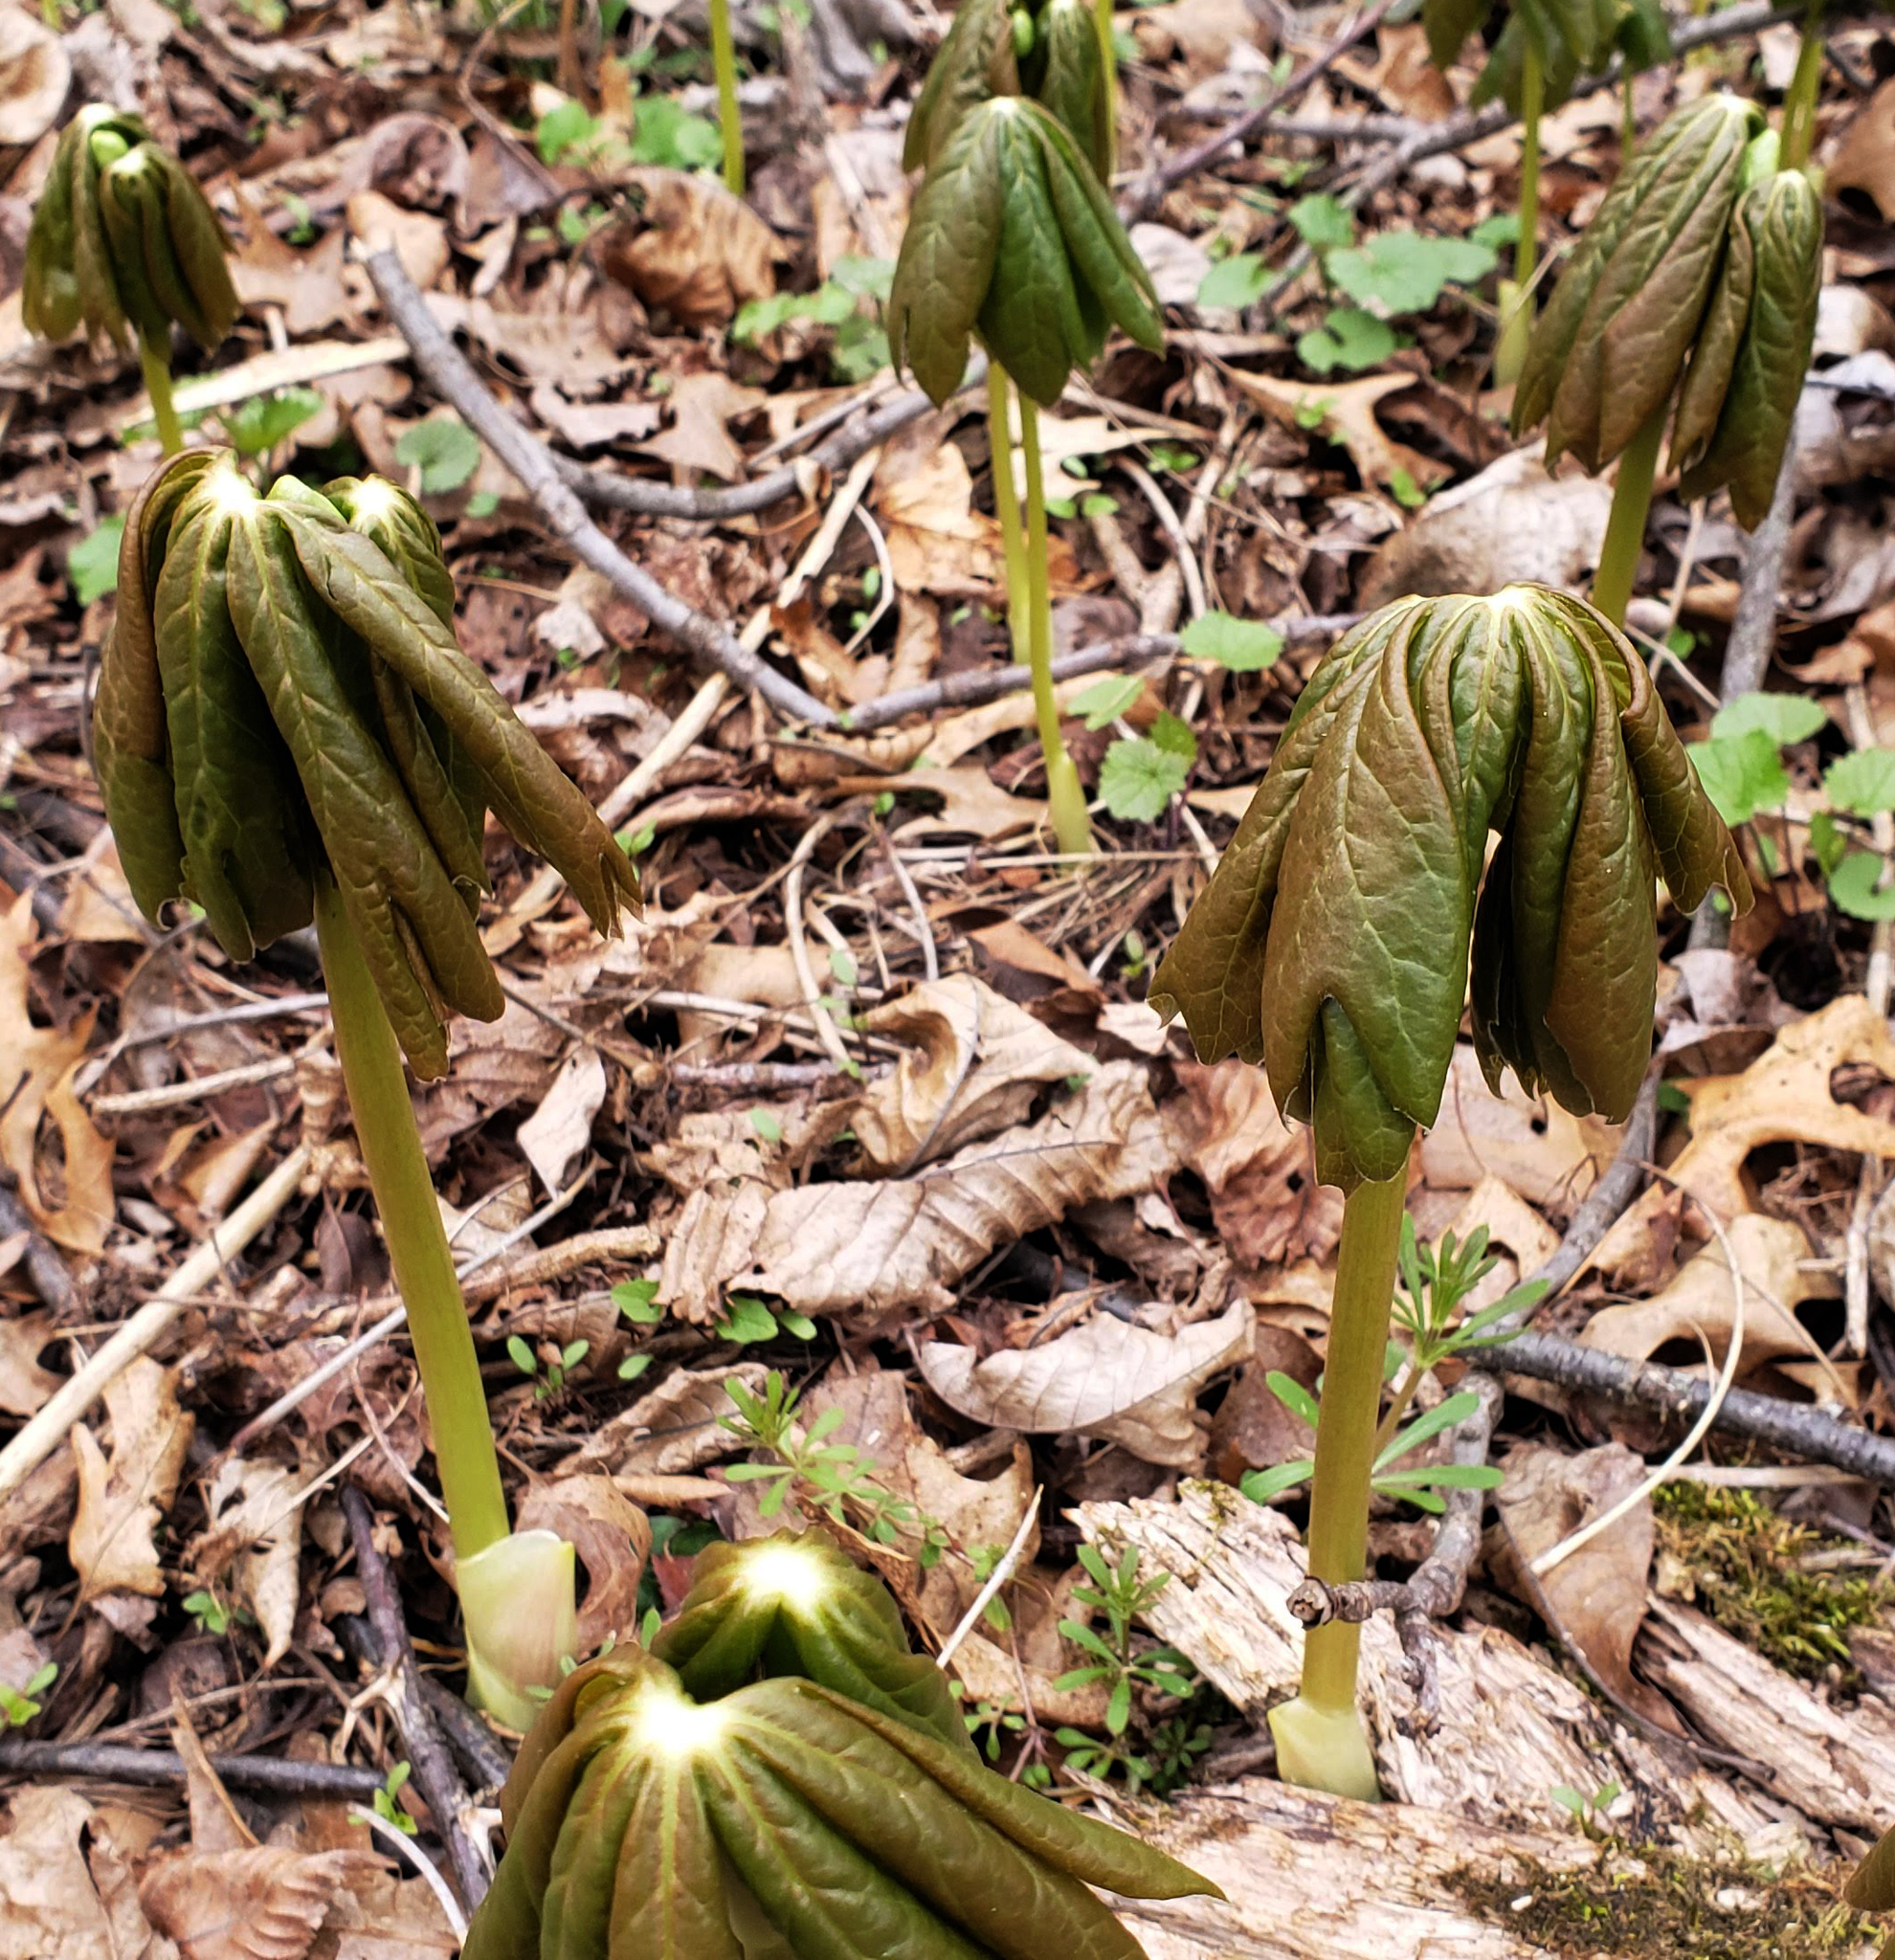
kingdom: Plantae
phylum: Tracheophyta
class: Magnoliopsida
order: Ranunculales
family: Berberidaceae
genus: Podophyllum
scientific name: Podophyllum peltatum
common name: Wild mandrake
